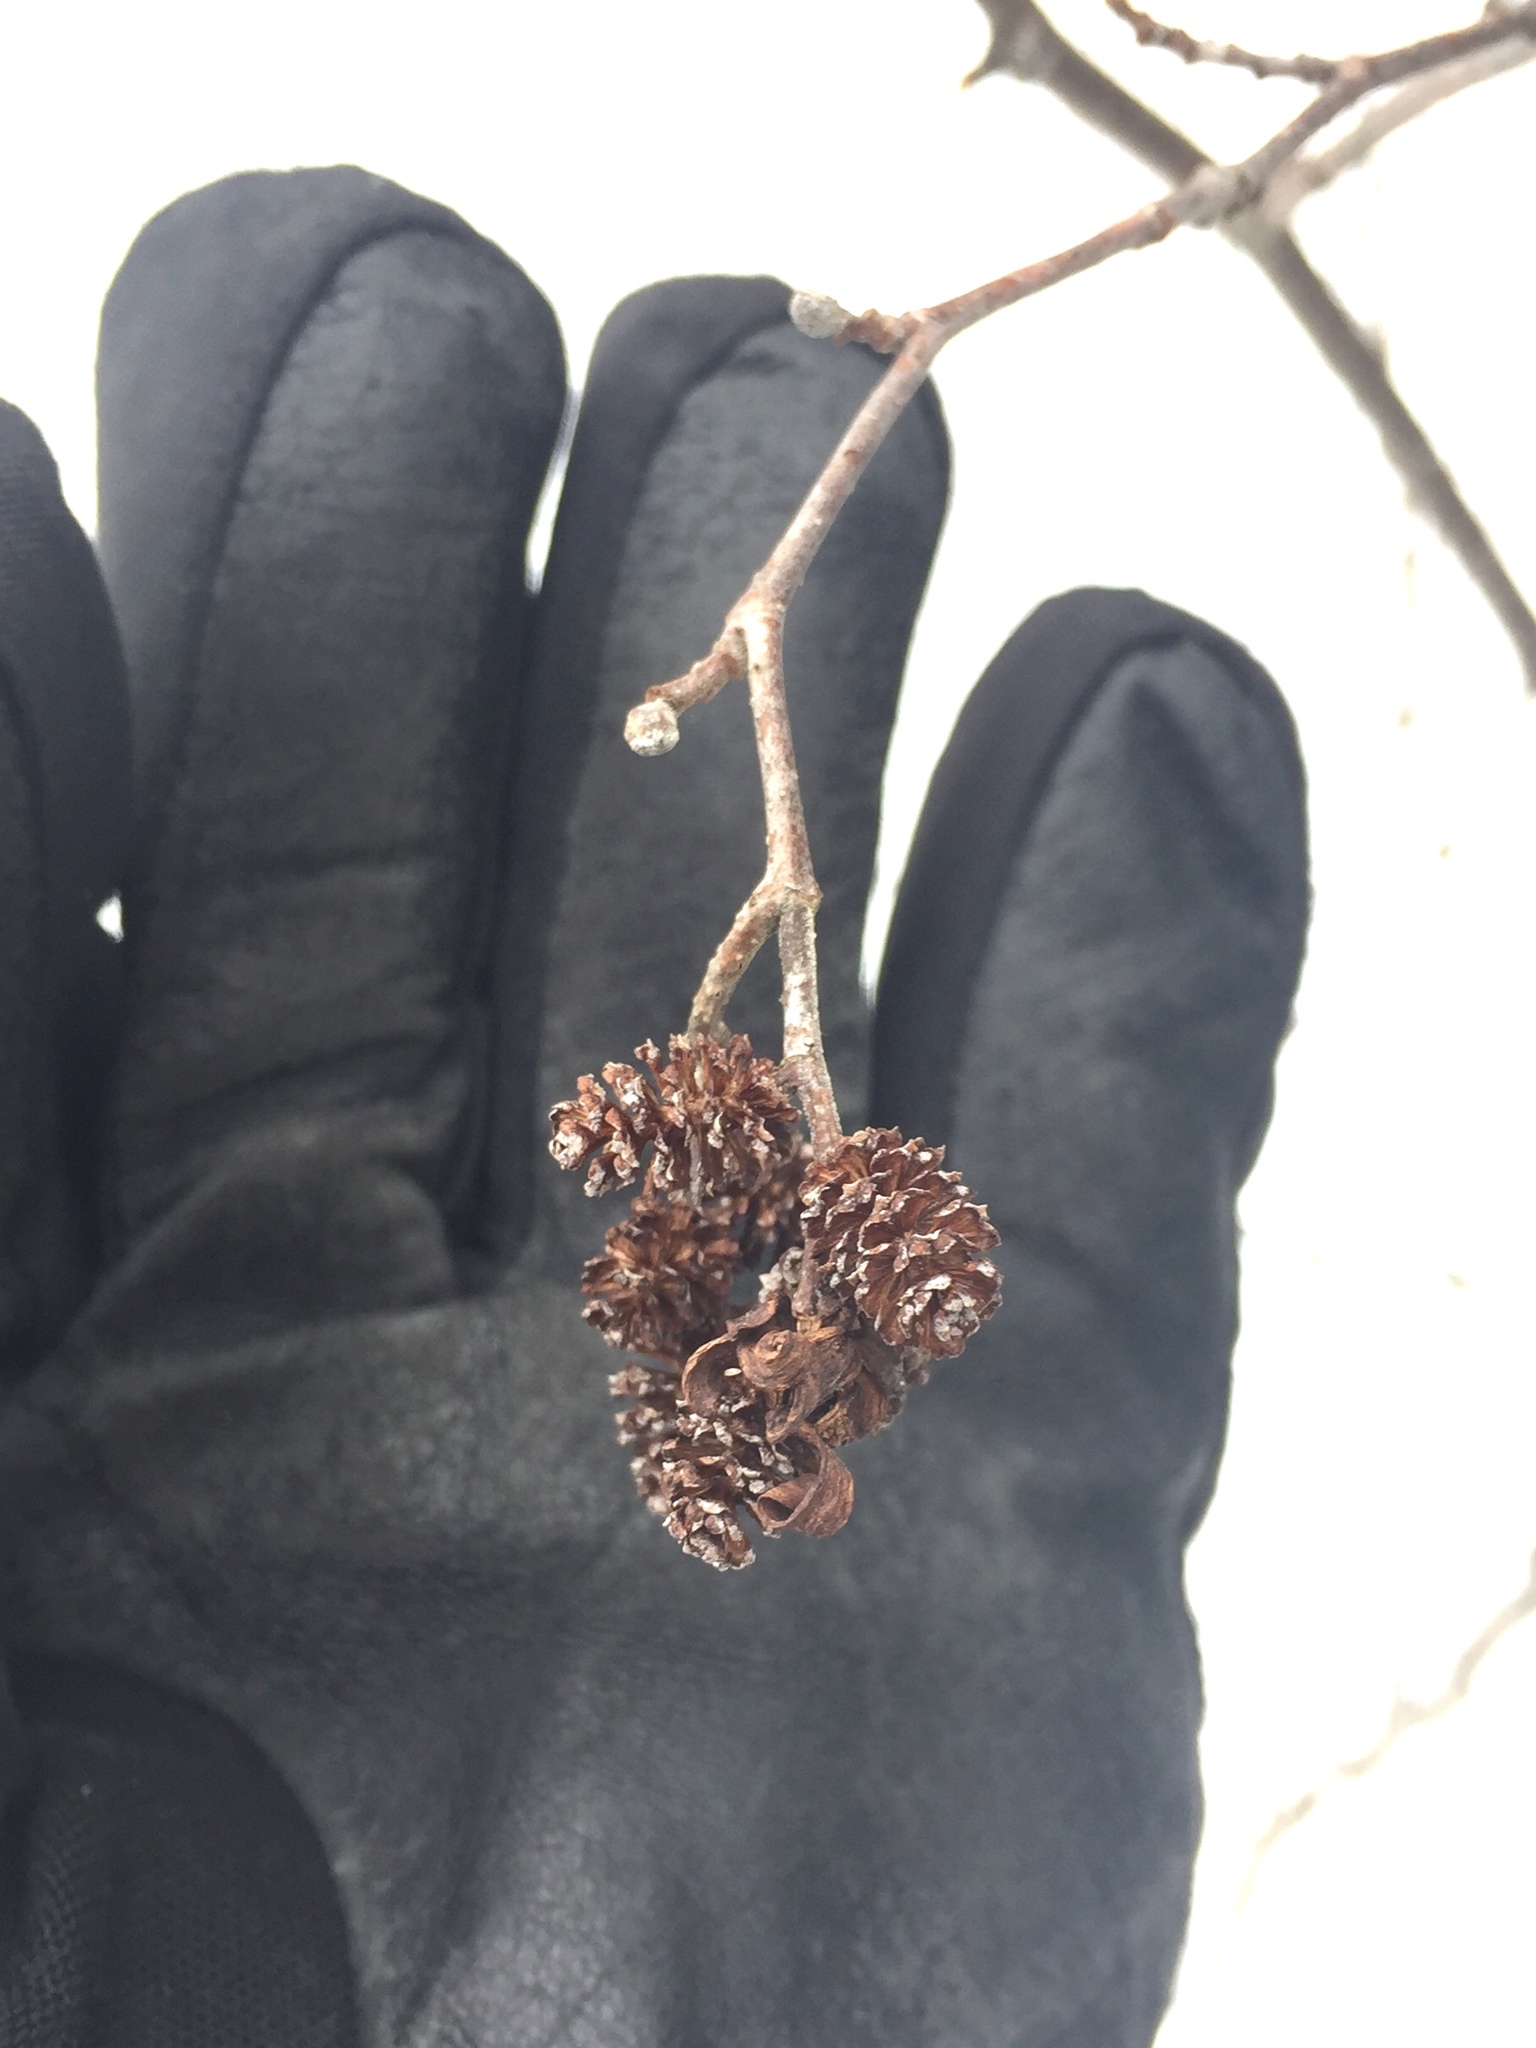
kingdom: Plantae
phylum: Tracheophyta
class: Magnoliopsida
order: Fagales
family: Betulaceae
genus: Alnus
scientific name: Alnus incana
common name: Grey alder
